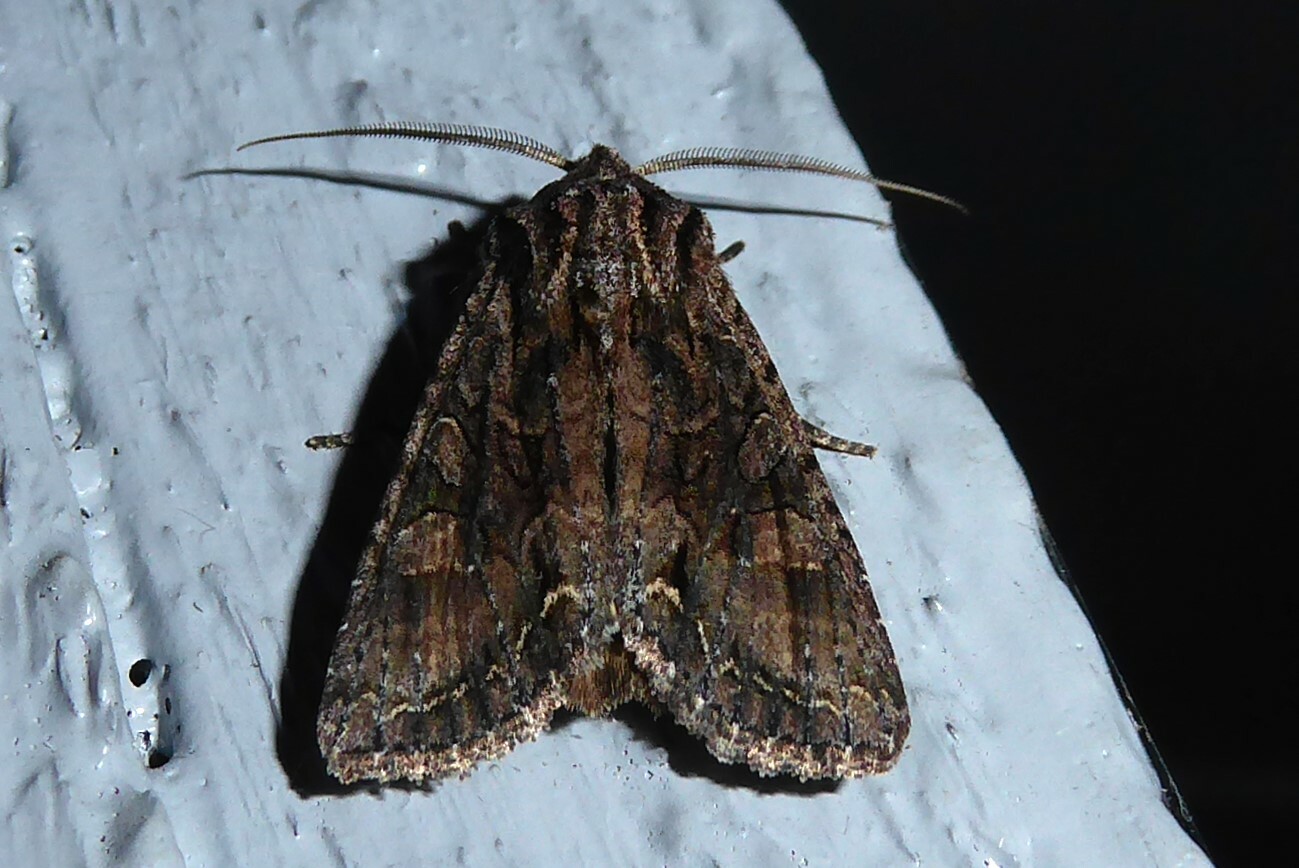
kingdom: Animalia
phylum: Arthropoda
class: Insecta
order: Lepidoptera
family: Noctuidae
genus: Ichneutica
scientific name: Ichneutica mutans
